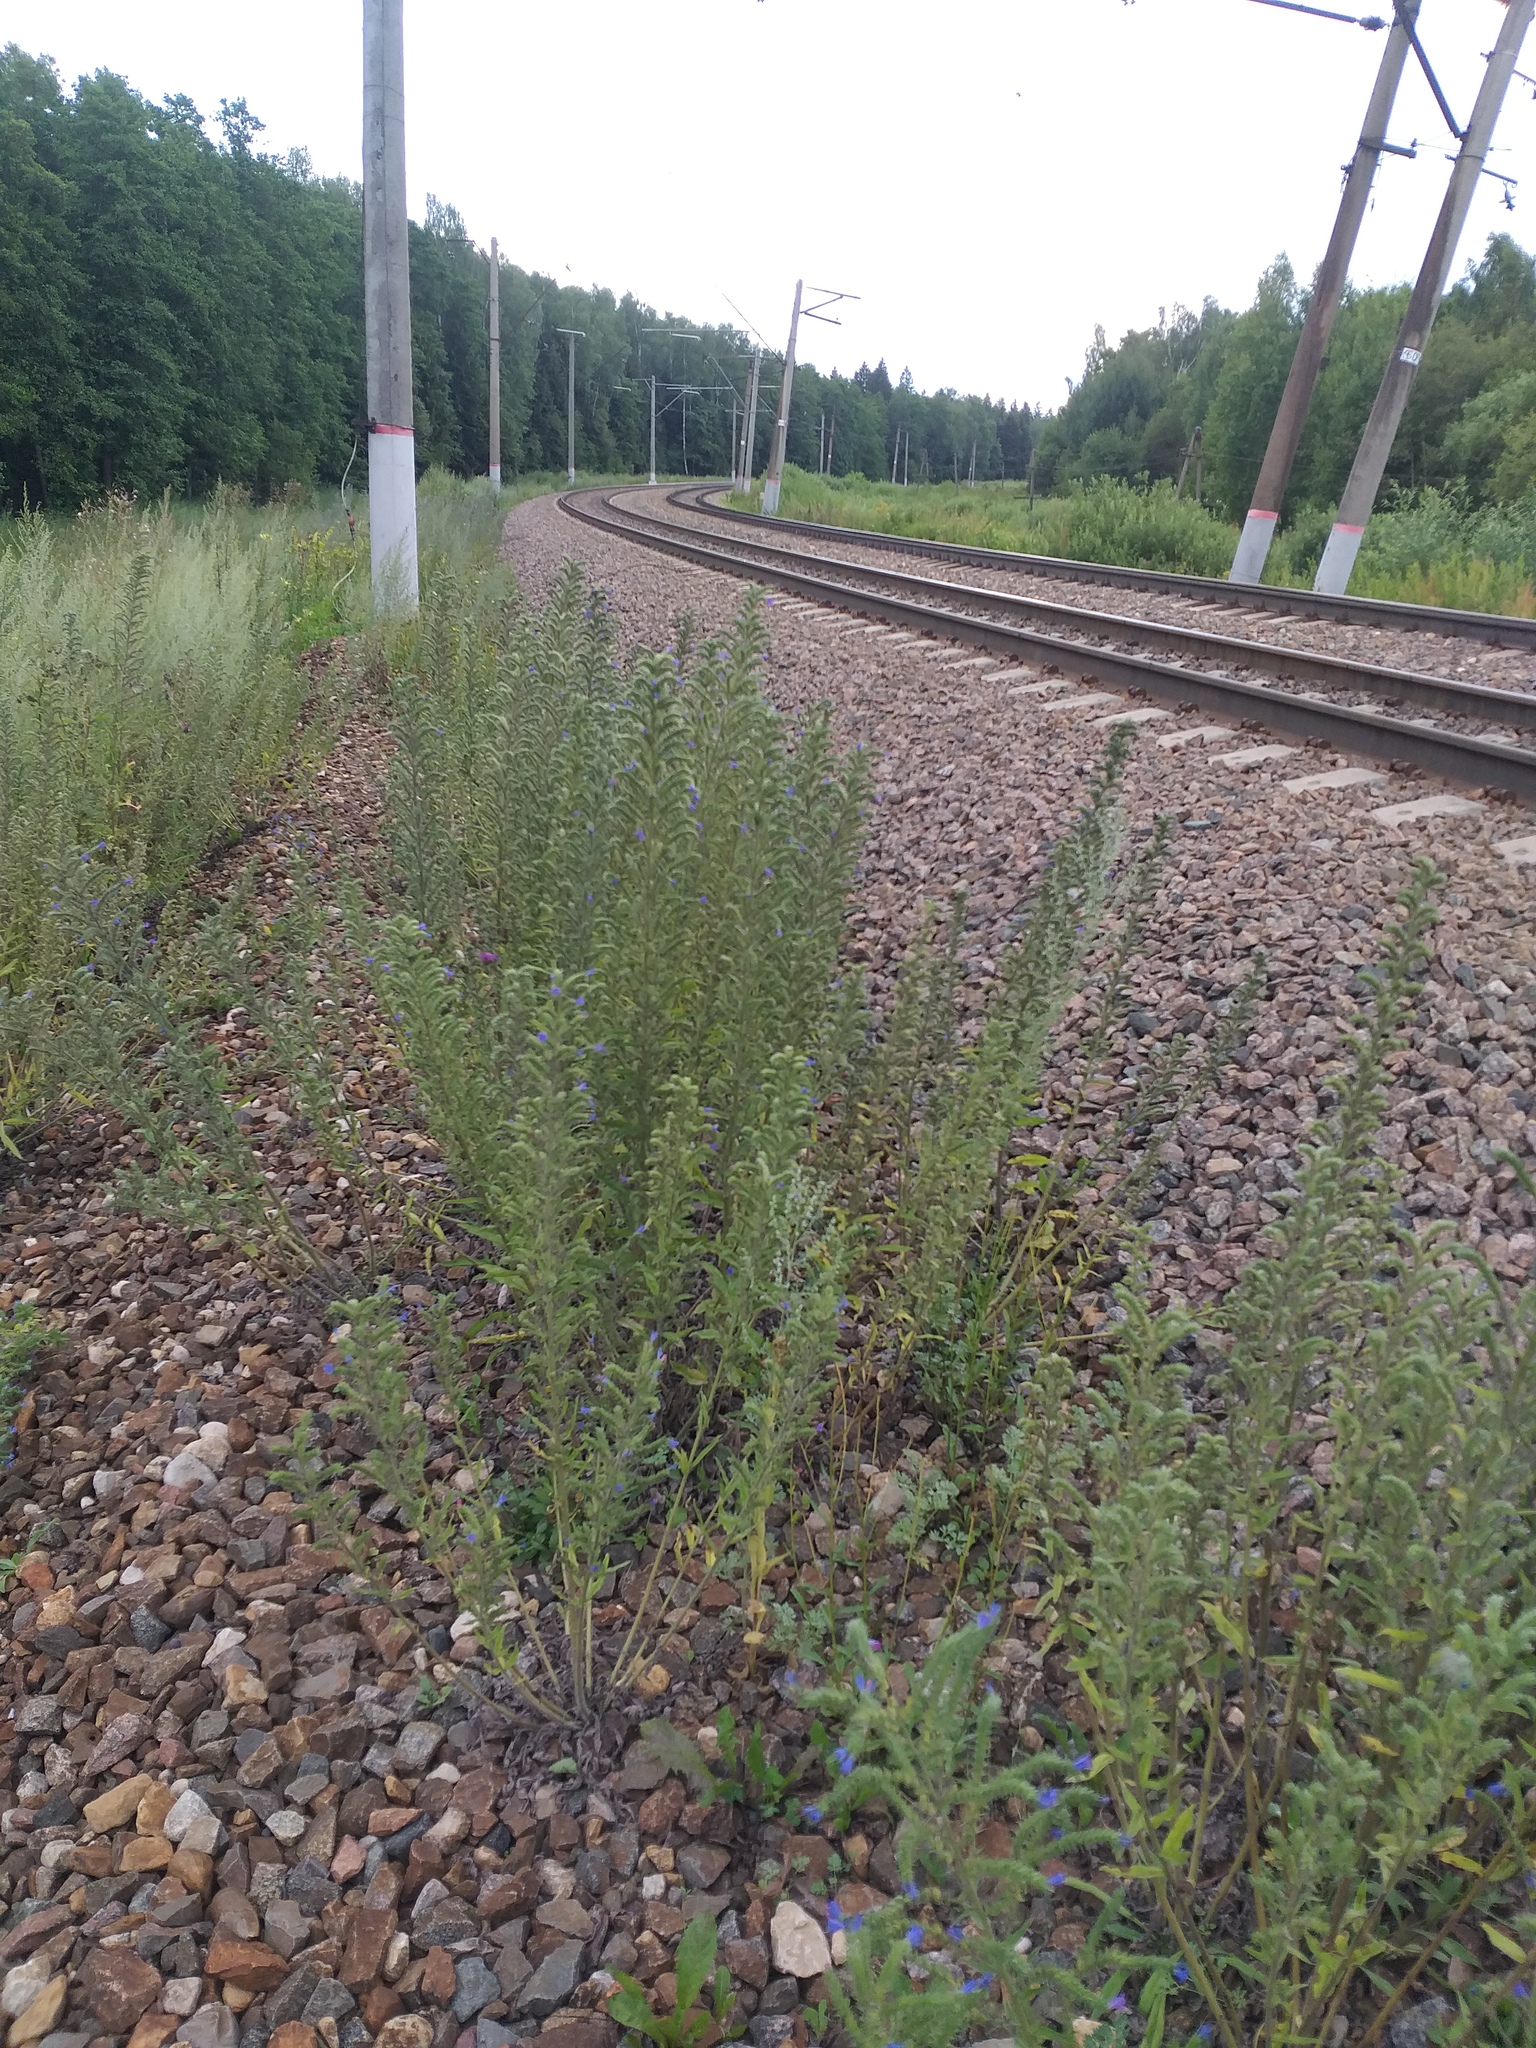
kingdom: Plantae
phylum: Tracheophyta
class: Magnoliopsida
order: Boraginales
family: Boraginaceae
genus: Echium
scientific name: Echium vulgare
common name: Common viper's bugloss
